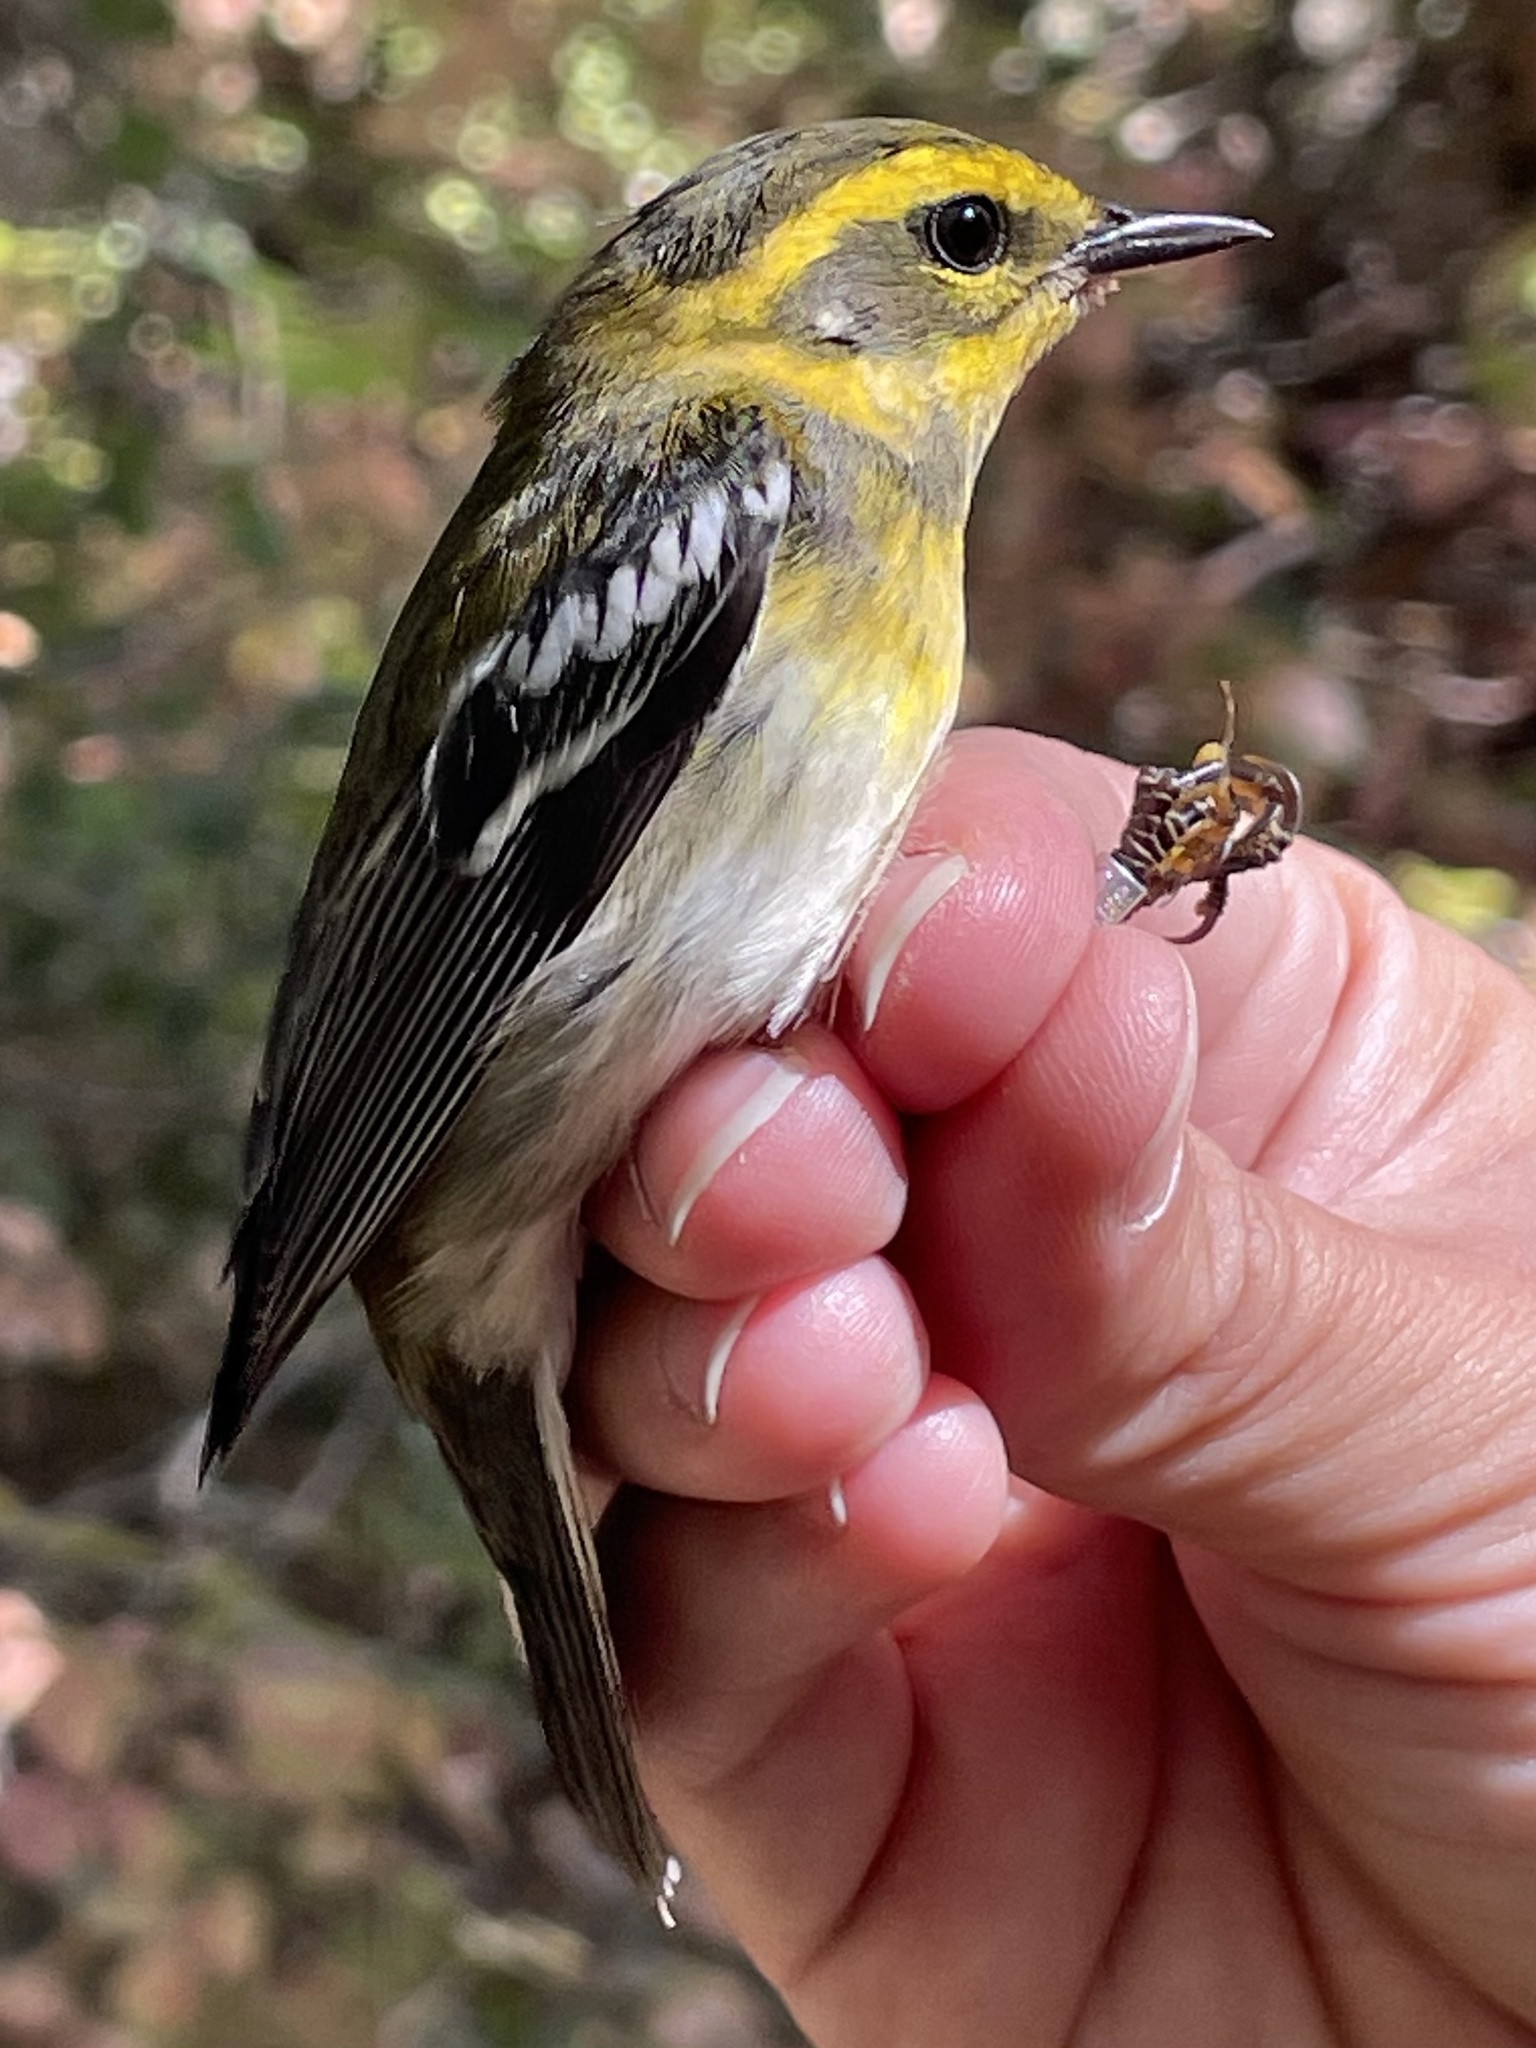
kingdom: Animalia
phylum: Chordata
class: Aves
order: Passeriformes
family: Parulidae
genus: Setophaga
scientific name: Setophaga townsendi
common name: Townsend's warbler
